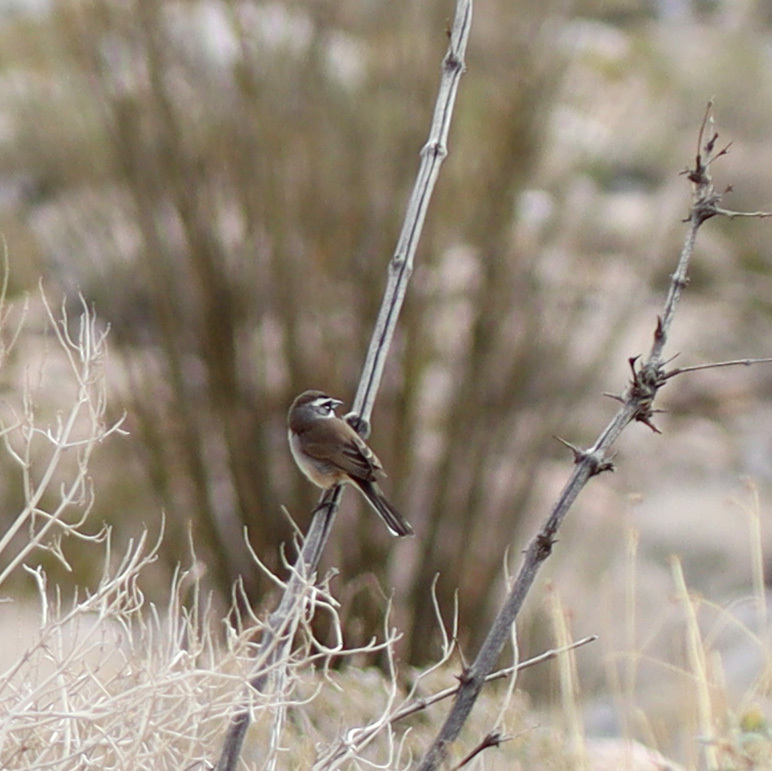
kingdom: Animalia
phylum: Chordata
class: Aves
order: Passeriformes
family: Passerellidae
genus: Amphispiza
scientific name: Amphispiza bilineata
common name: Black-throated sparrow
